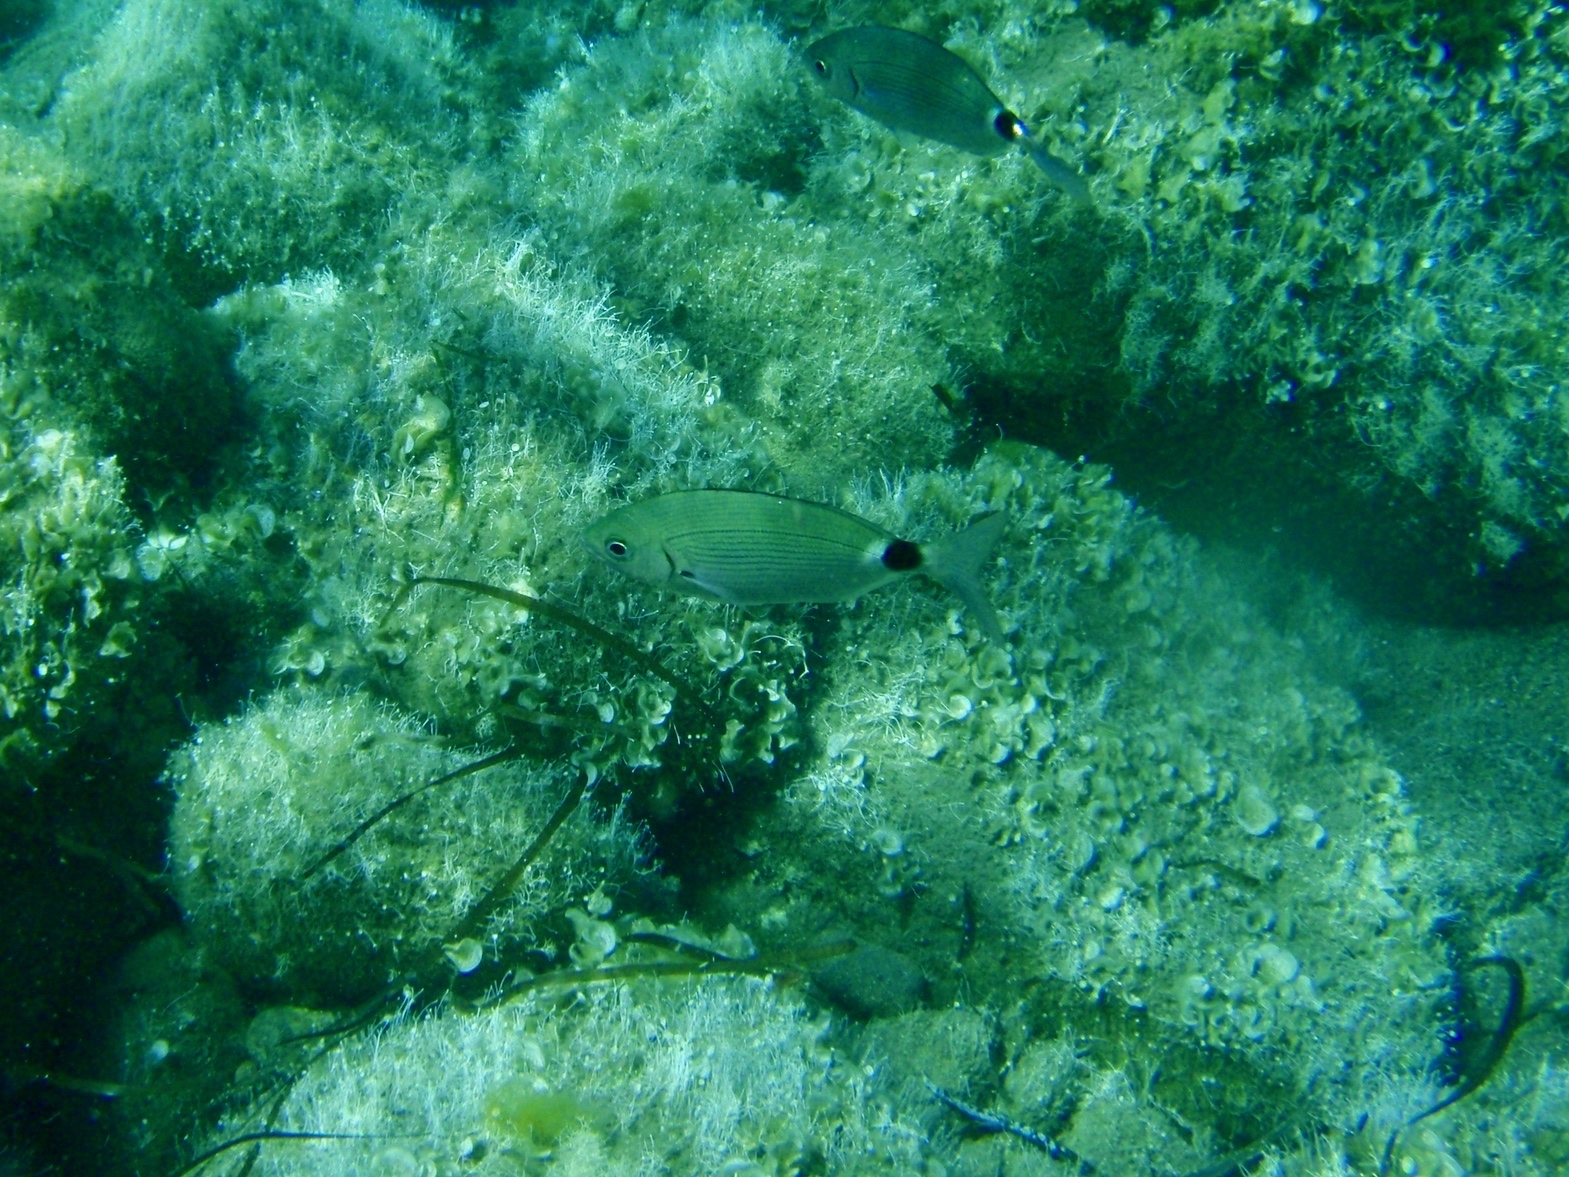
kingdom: Animalia
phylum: Chordata
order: Perciformes
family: Sparidae
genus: Oblada
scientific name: Oblada melanura
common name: Saddled seabream
